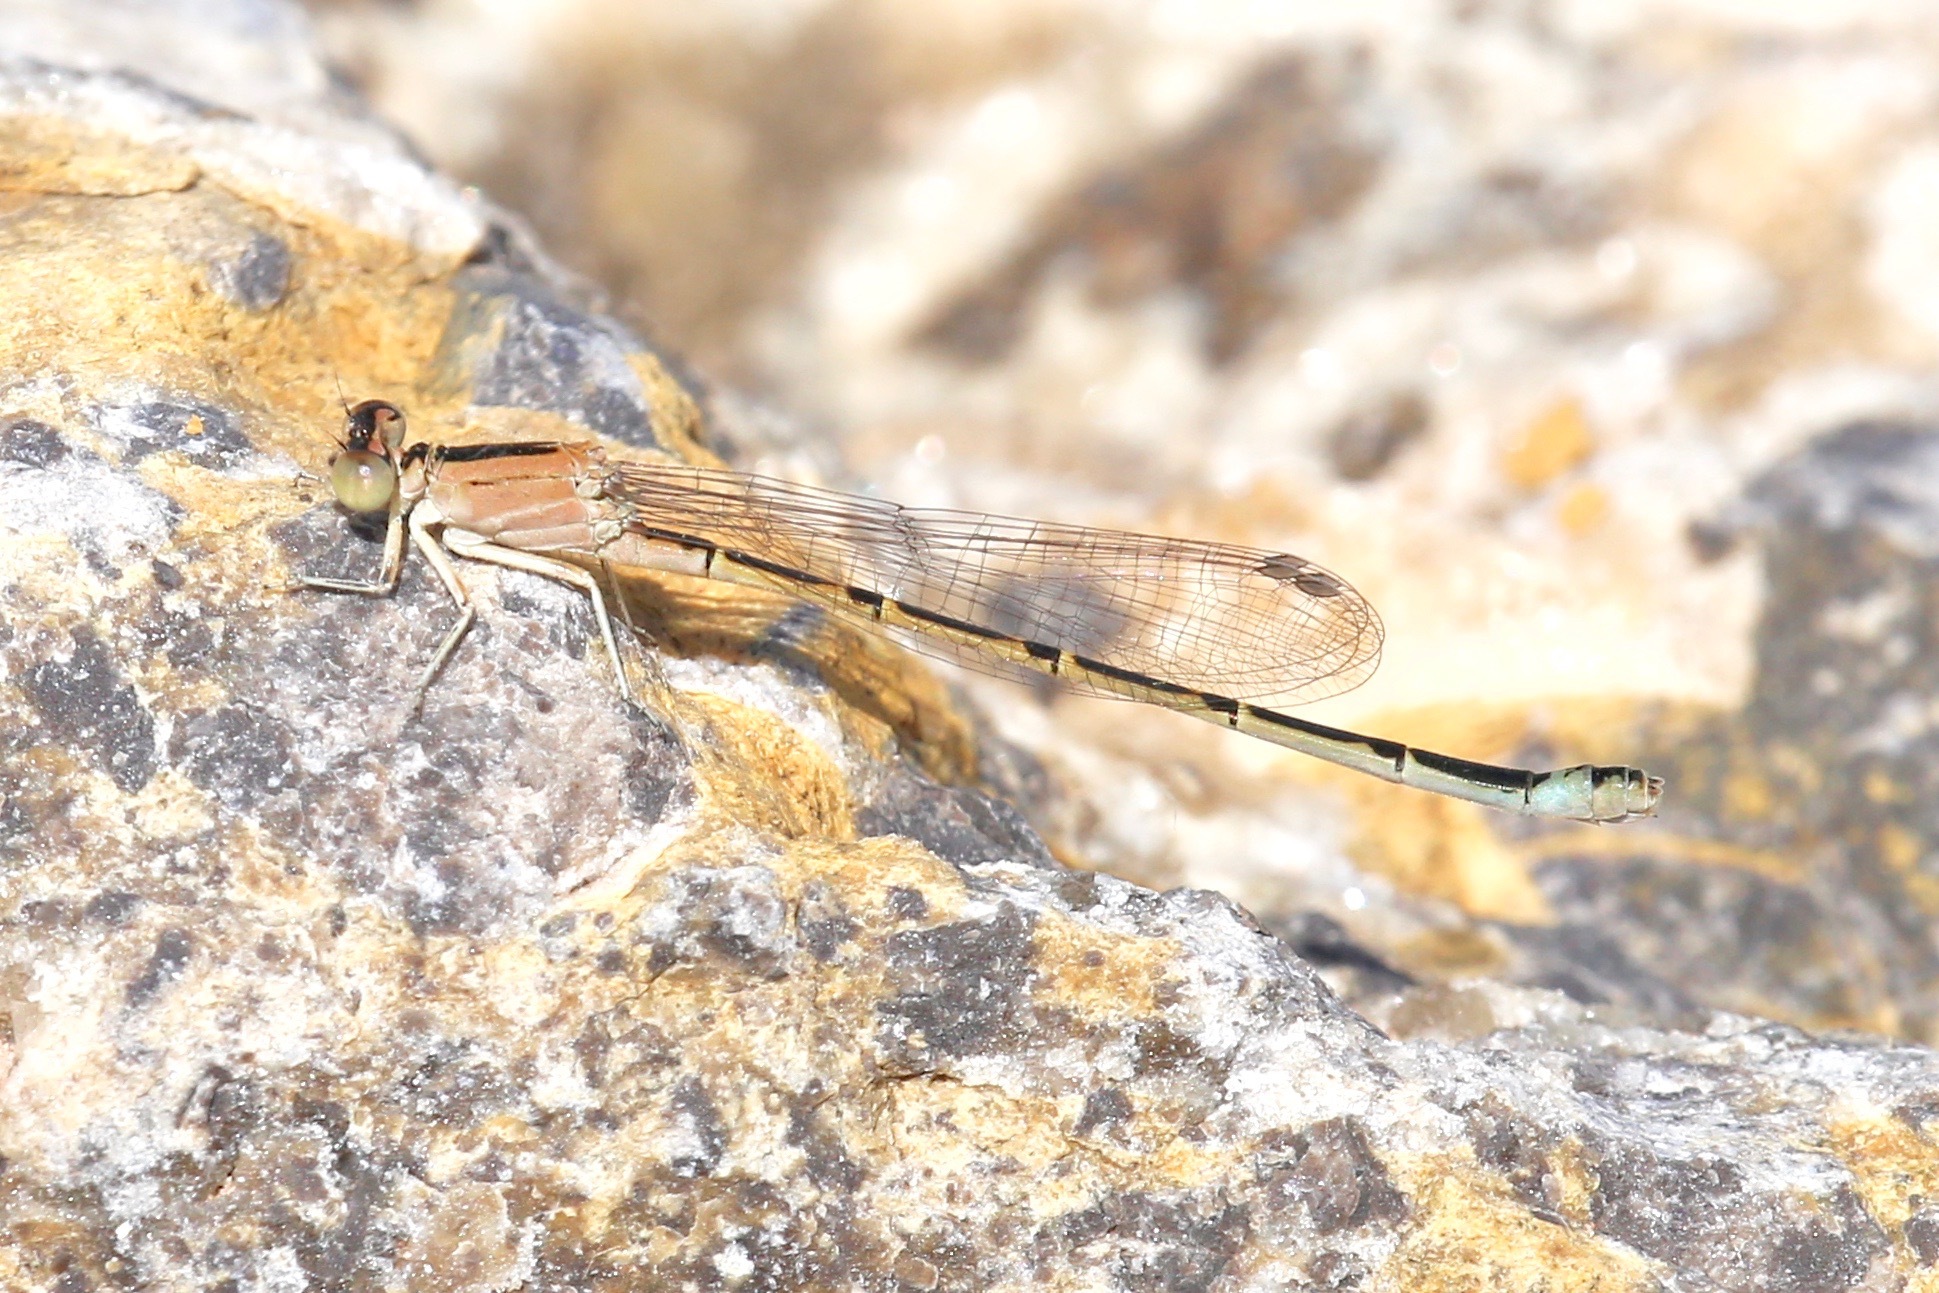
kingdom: Animalia
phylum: Arthropoda
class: Insecta
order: Odonata
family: Coenagrionidae
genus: Ischnura
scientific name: Ischnura barberi
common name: Desert forktail
